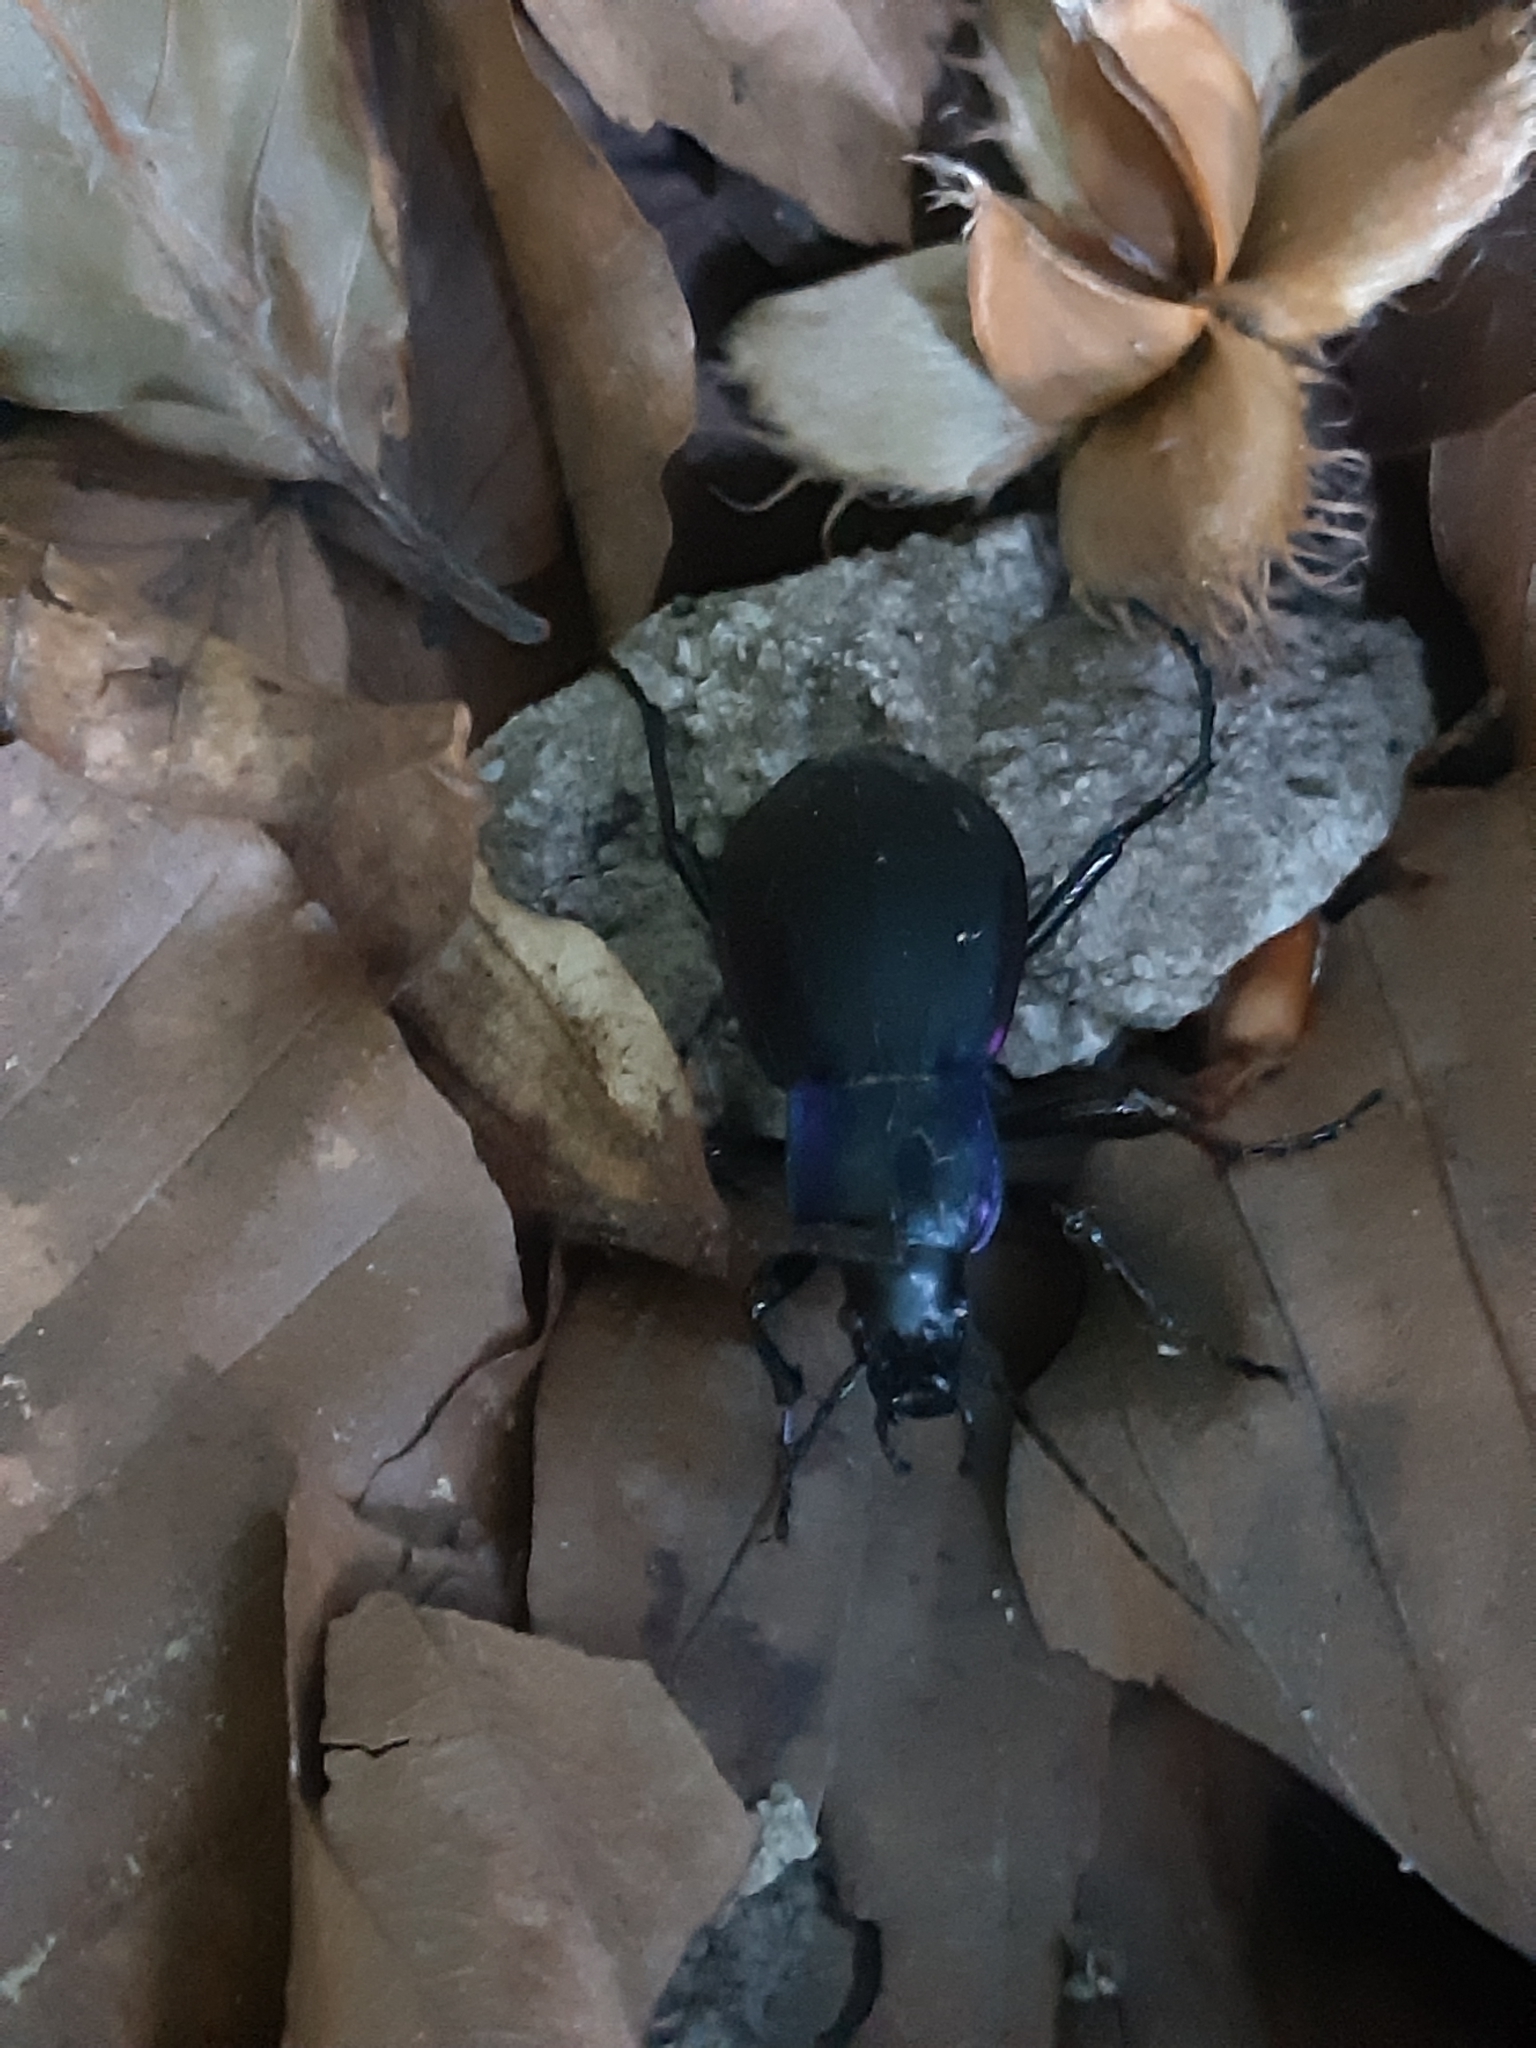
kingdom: Animalia
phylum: Arthropoda
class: Insecta
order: Coleoptera
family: Carabidae
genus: Carabus
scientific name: Carabus violaceus
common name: Violet ground beetle
